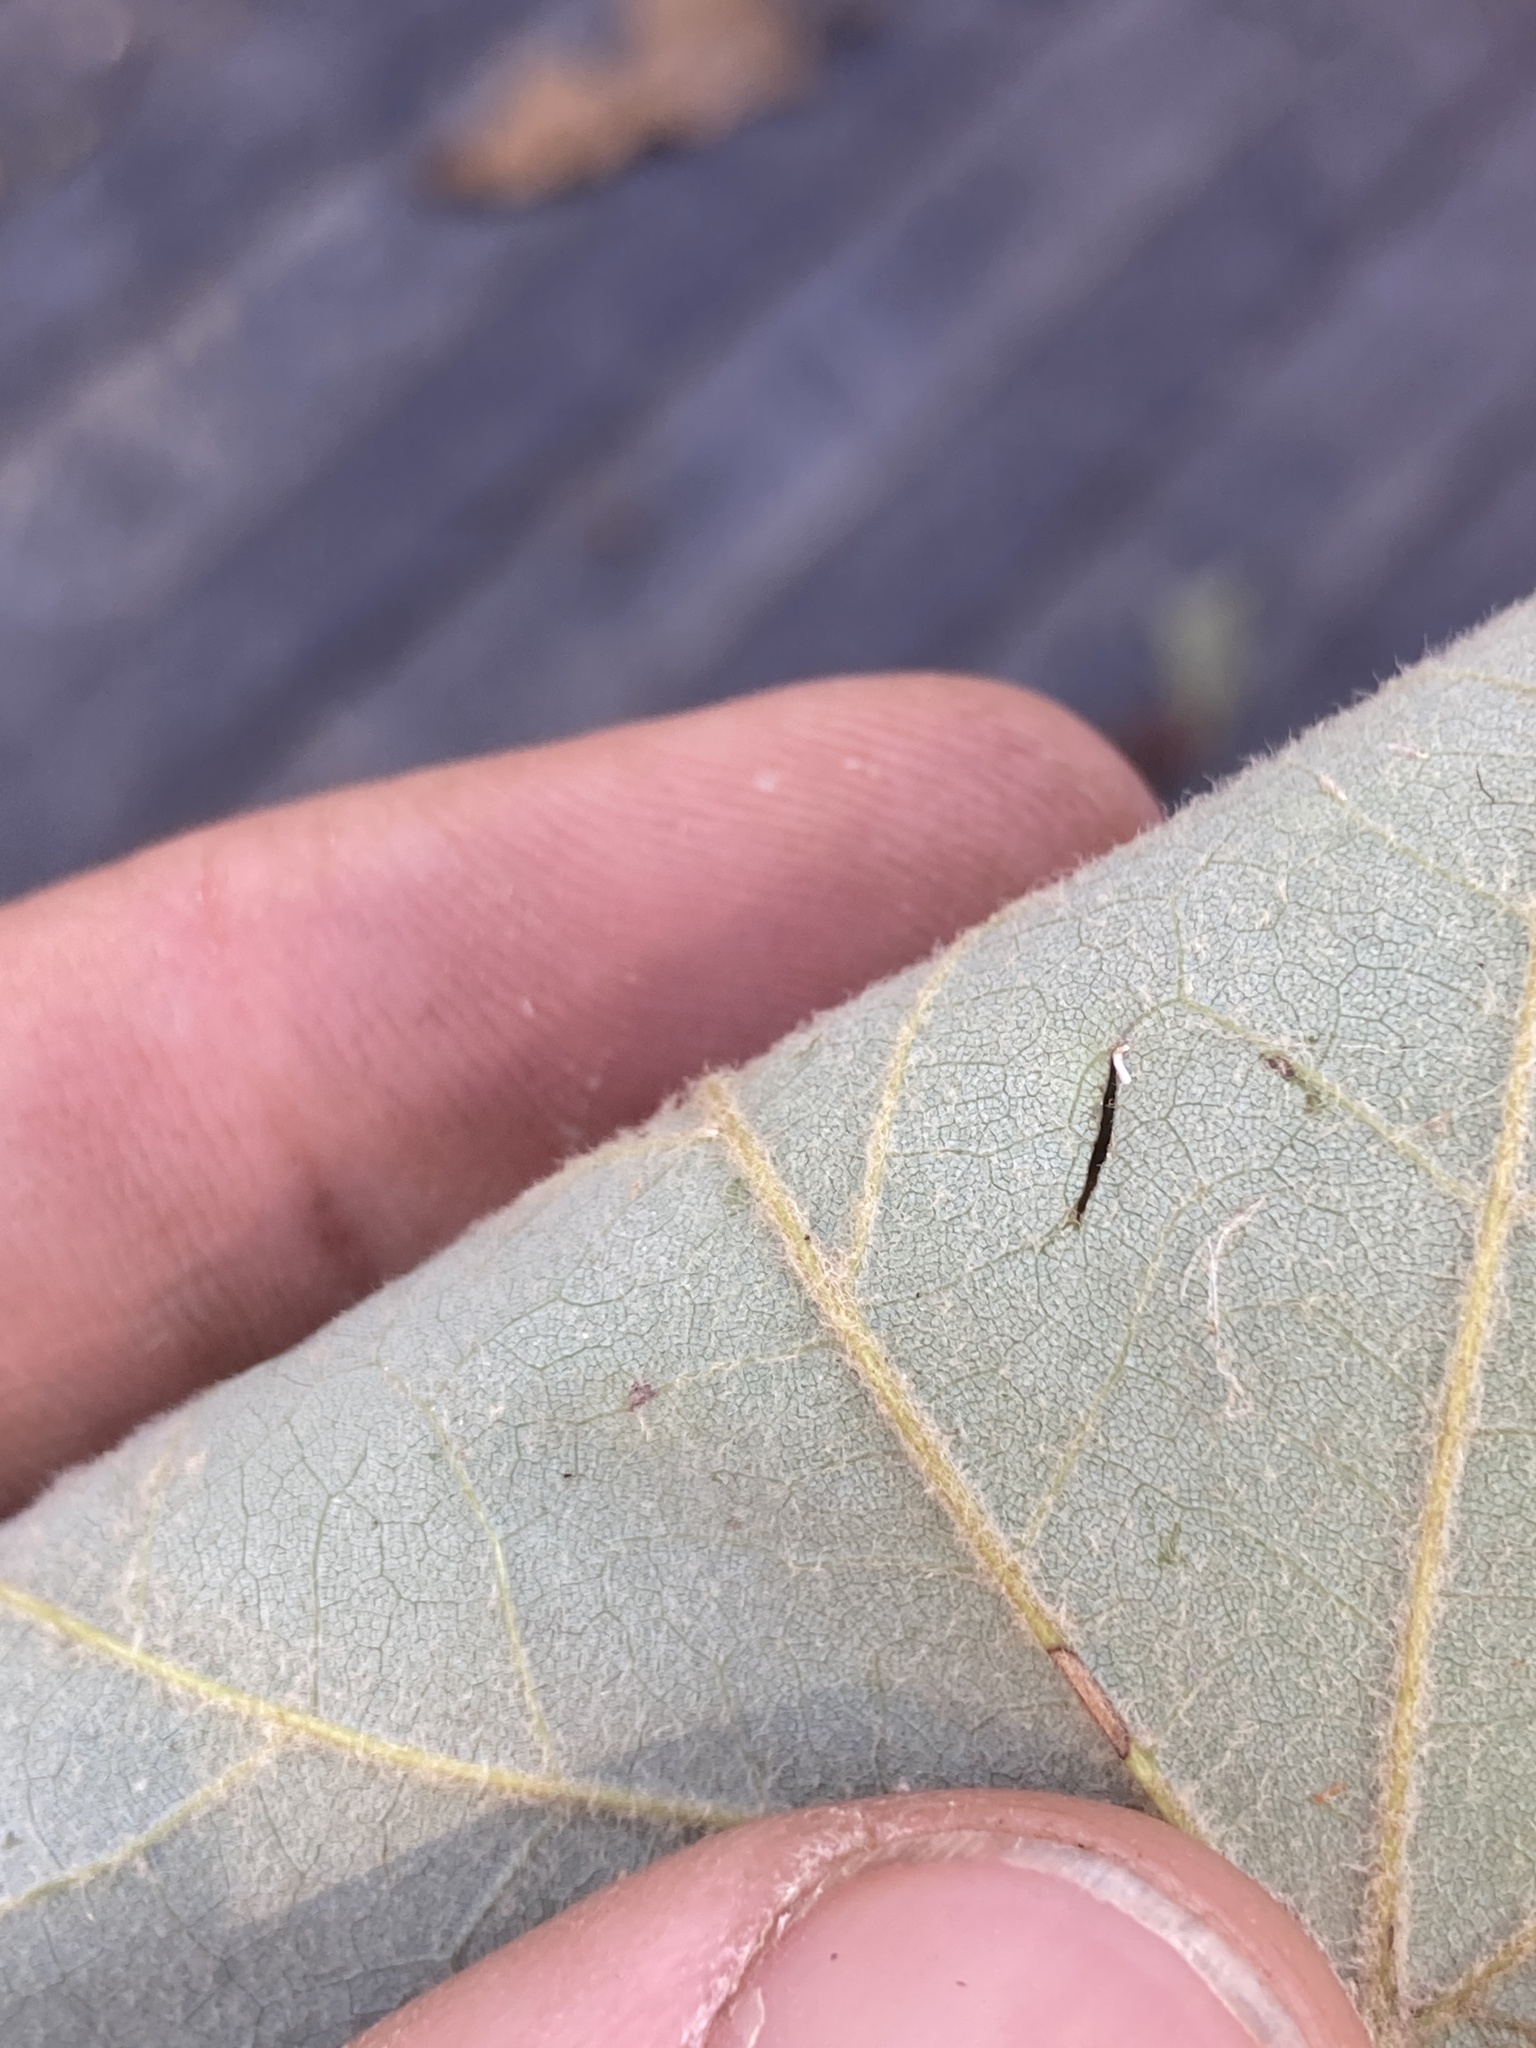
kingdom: Plantae
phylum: Tracheophyta
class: Magnoliopsida
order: Sapindales
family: Sapindaceae
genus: Acer
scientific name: Acer rubrum
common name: Red maple
